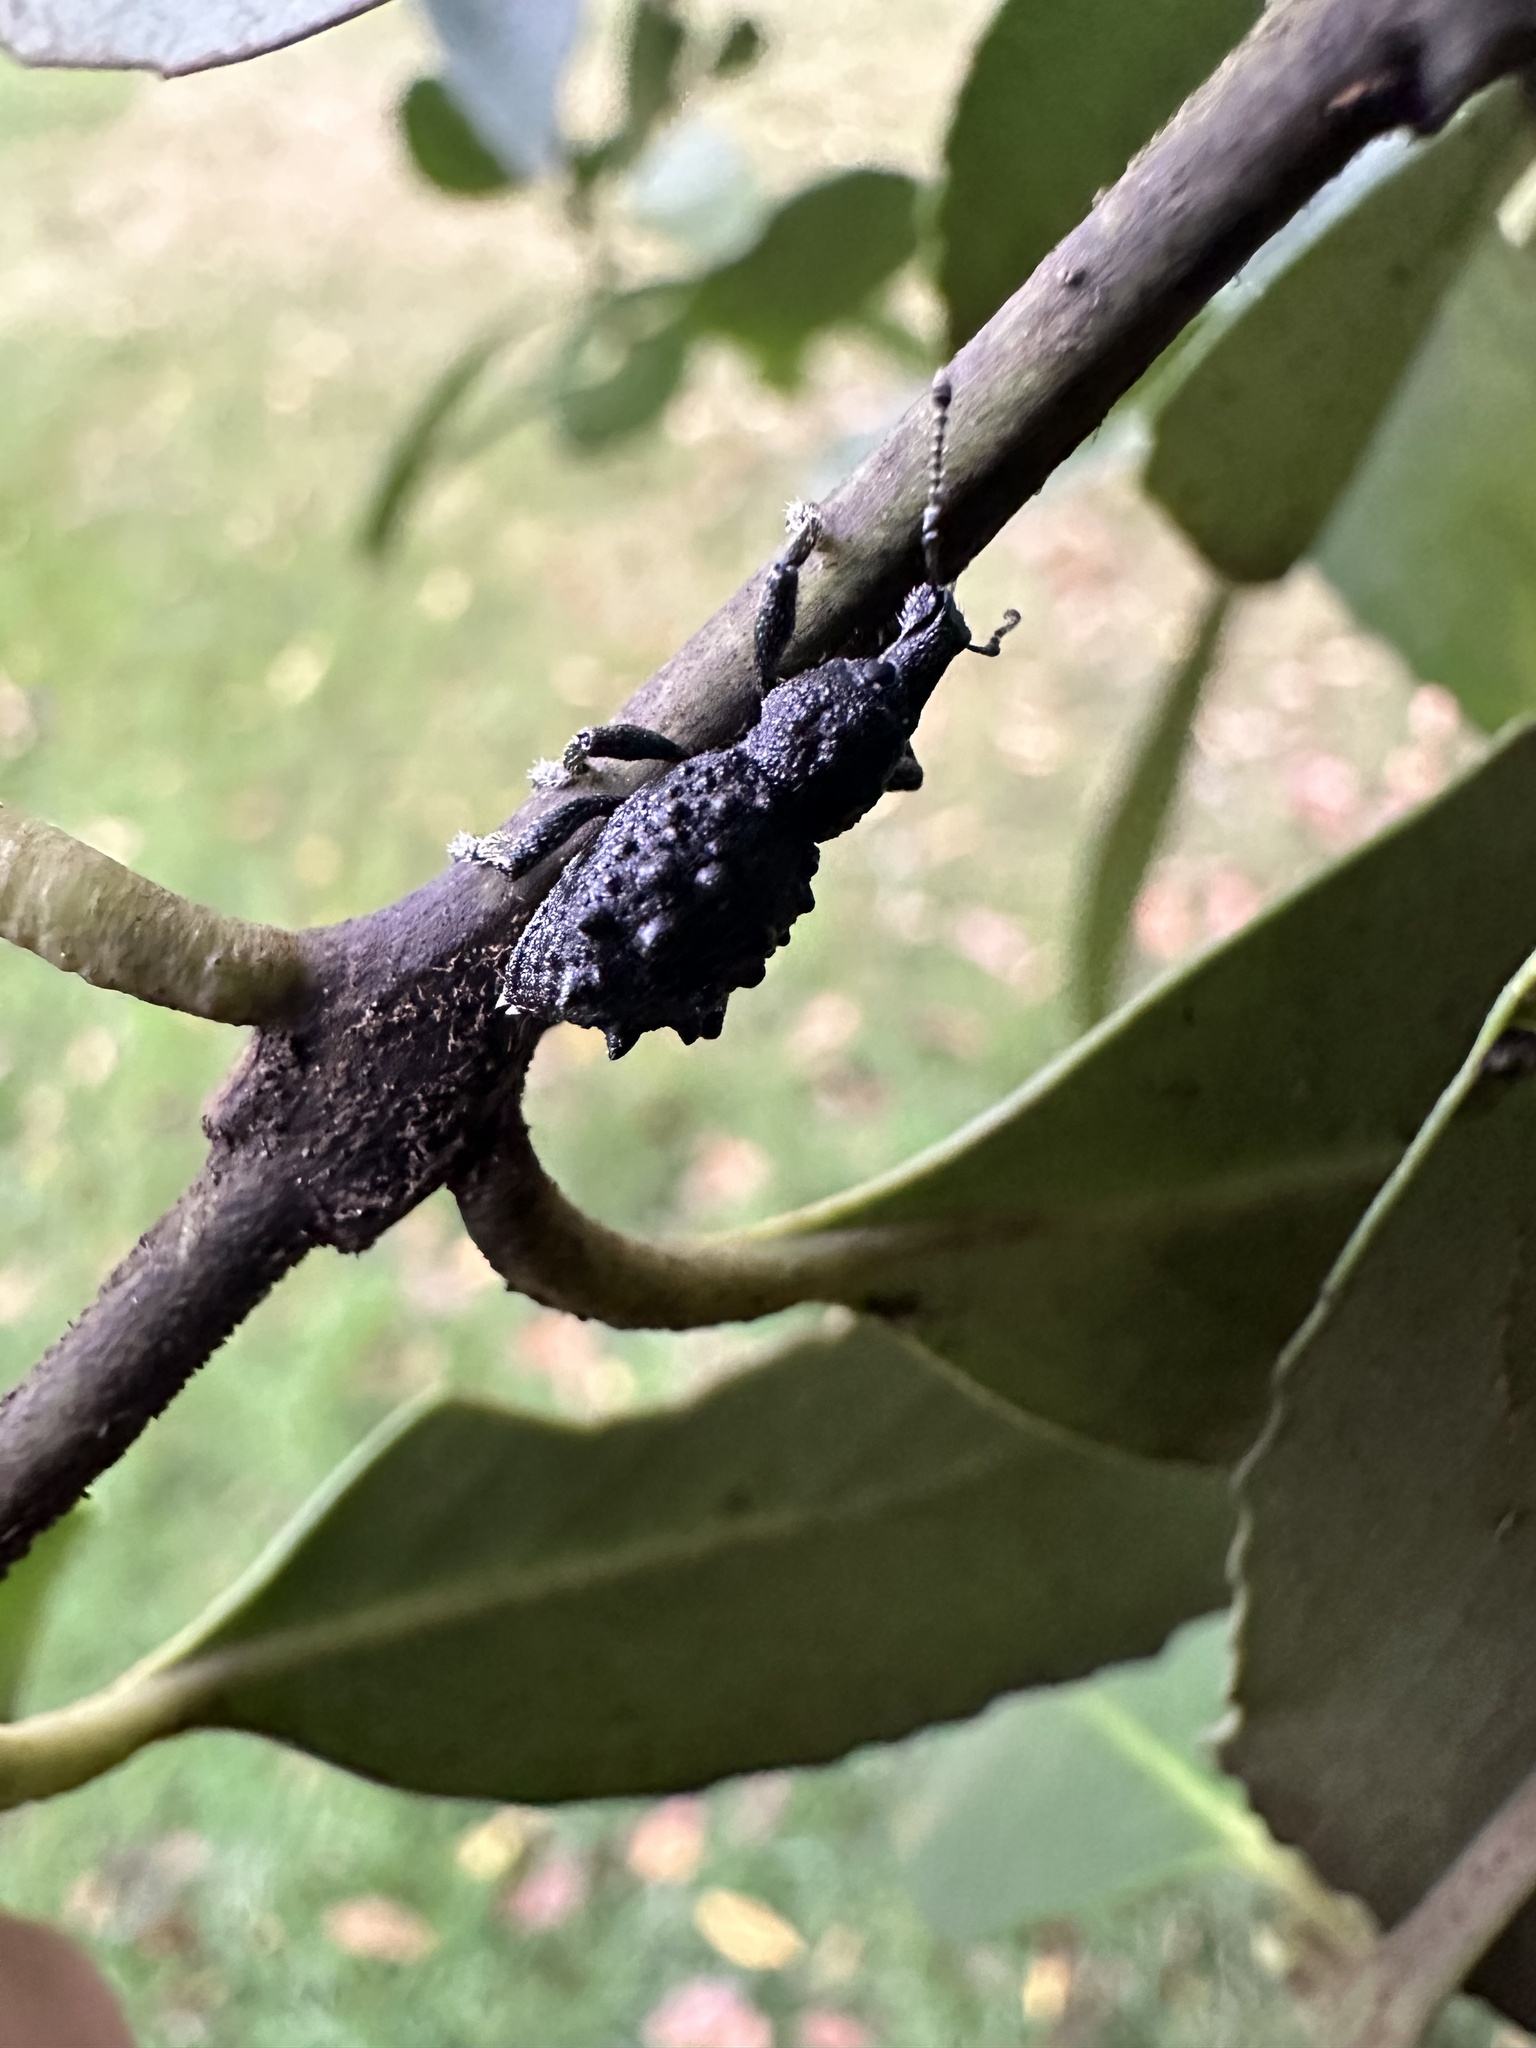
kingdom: Animalia
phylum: Arthropoda
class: Insecta
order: Coleoptera
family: Curculionidae
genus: Megalometis
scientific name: Megalometis spiniferus
